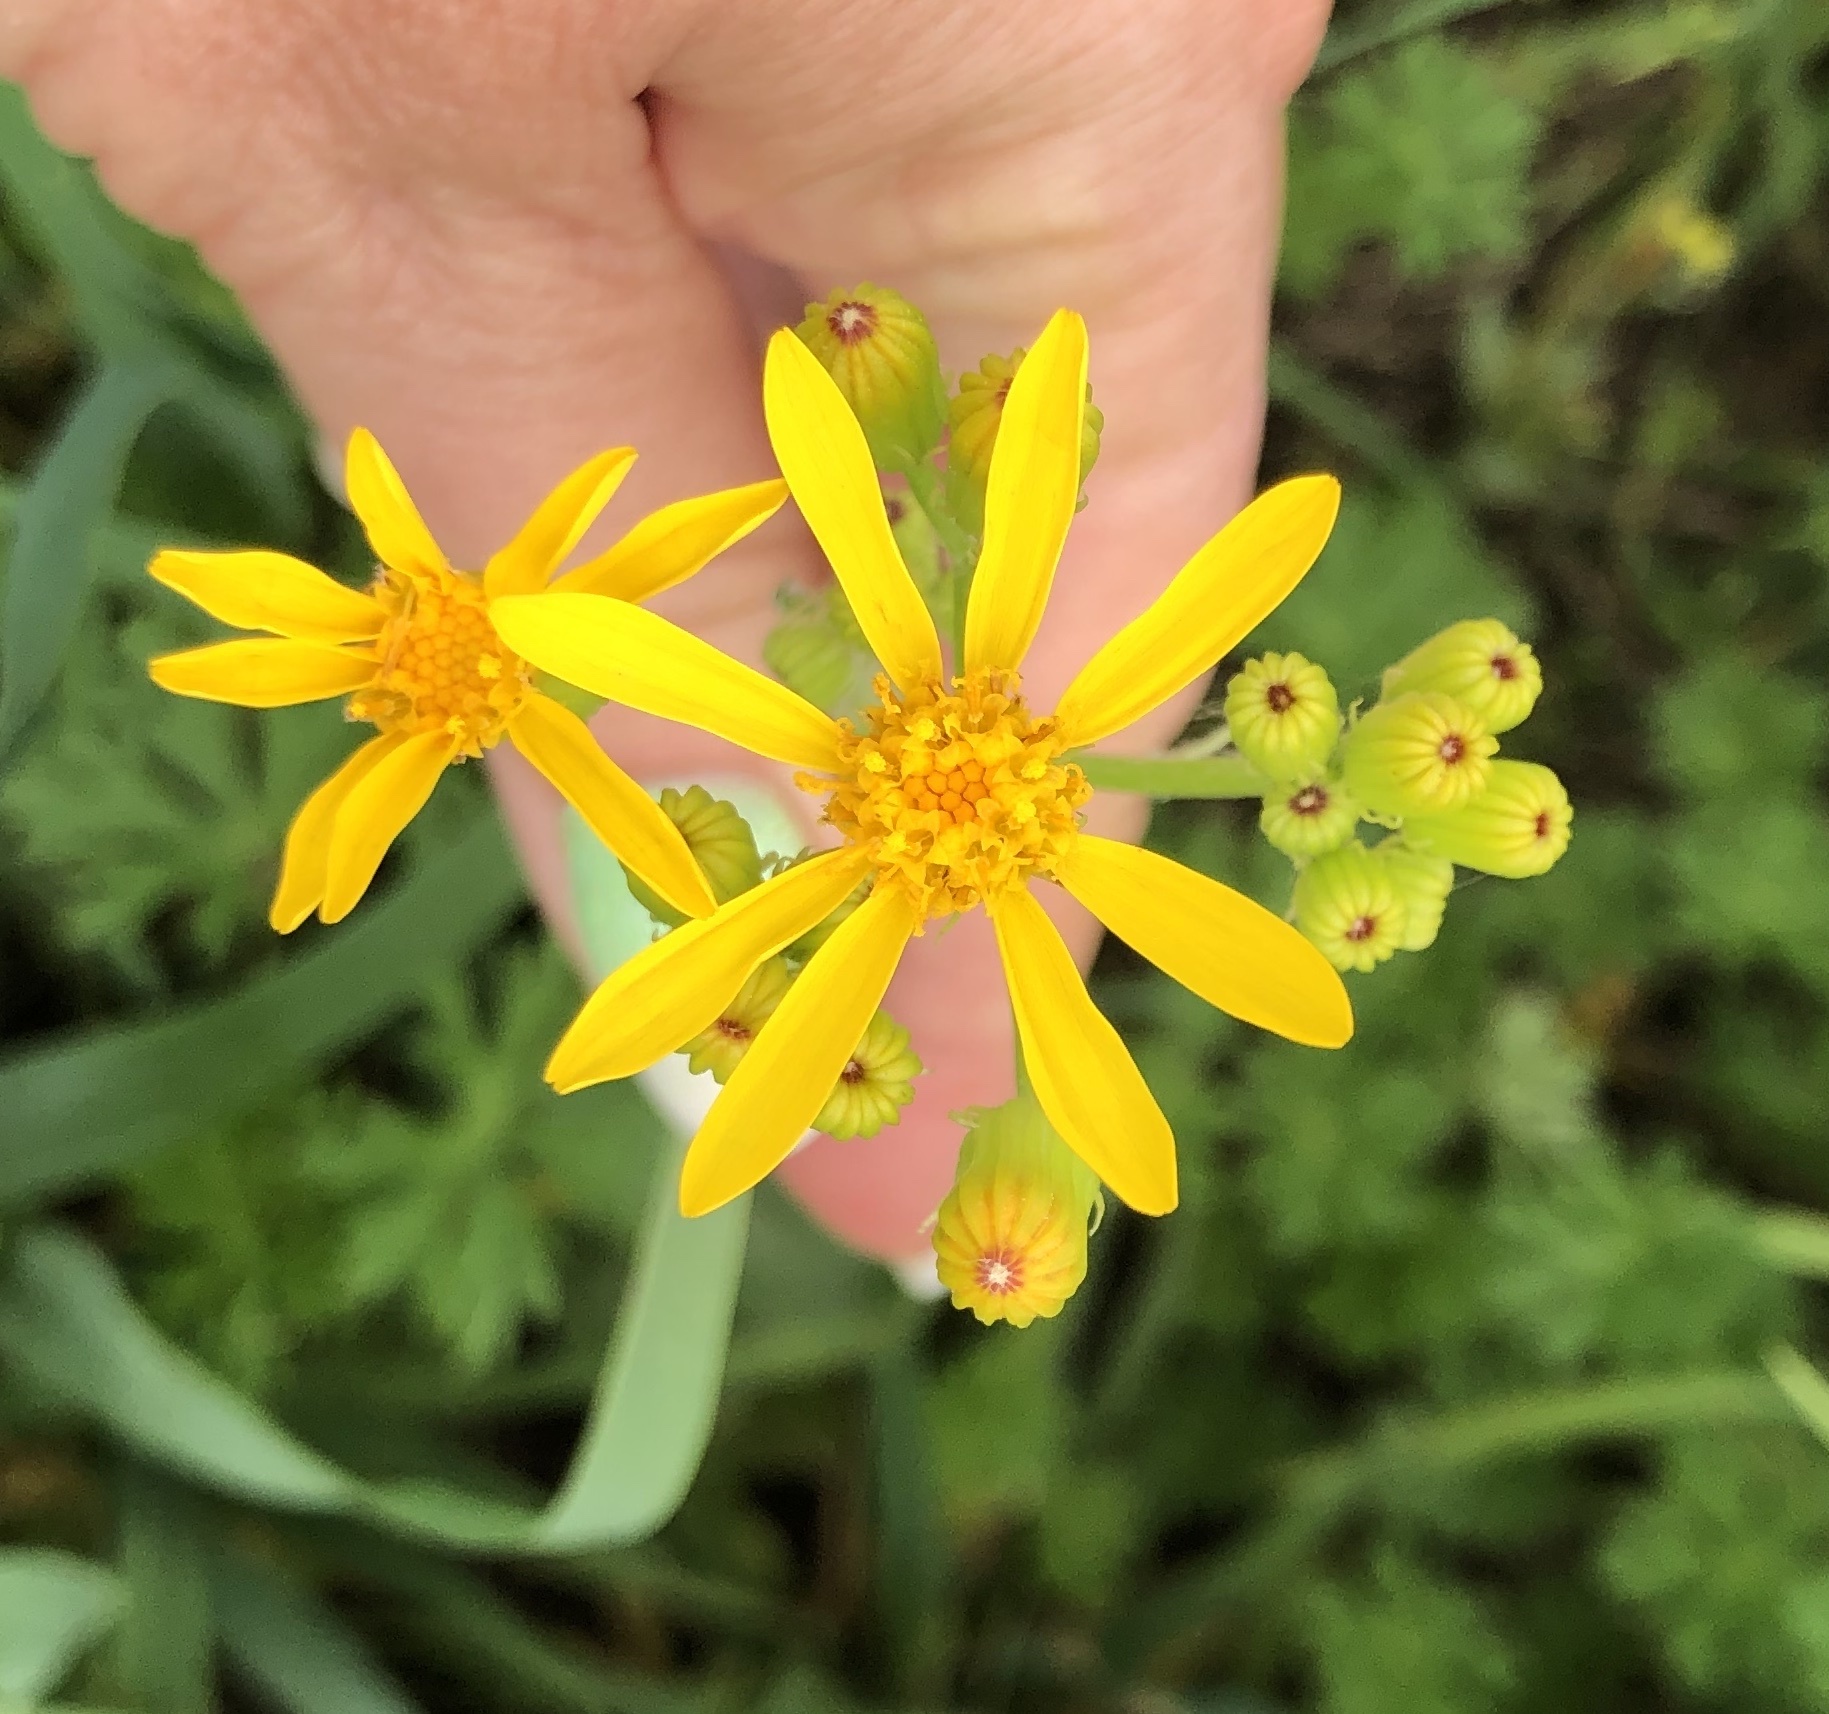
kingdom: Plantae
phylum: Tracheophyta
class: Magnoliopsida
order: Asterales
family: Asteraceae
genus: Senecio
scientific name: Senecio ampullaceus
